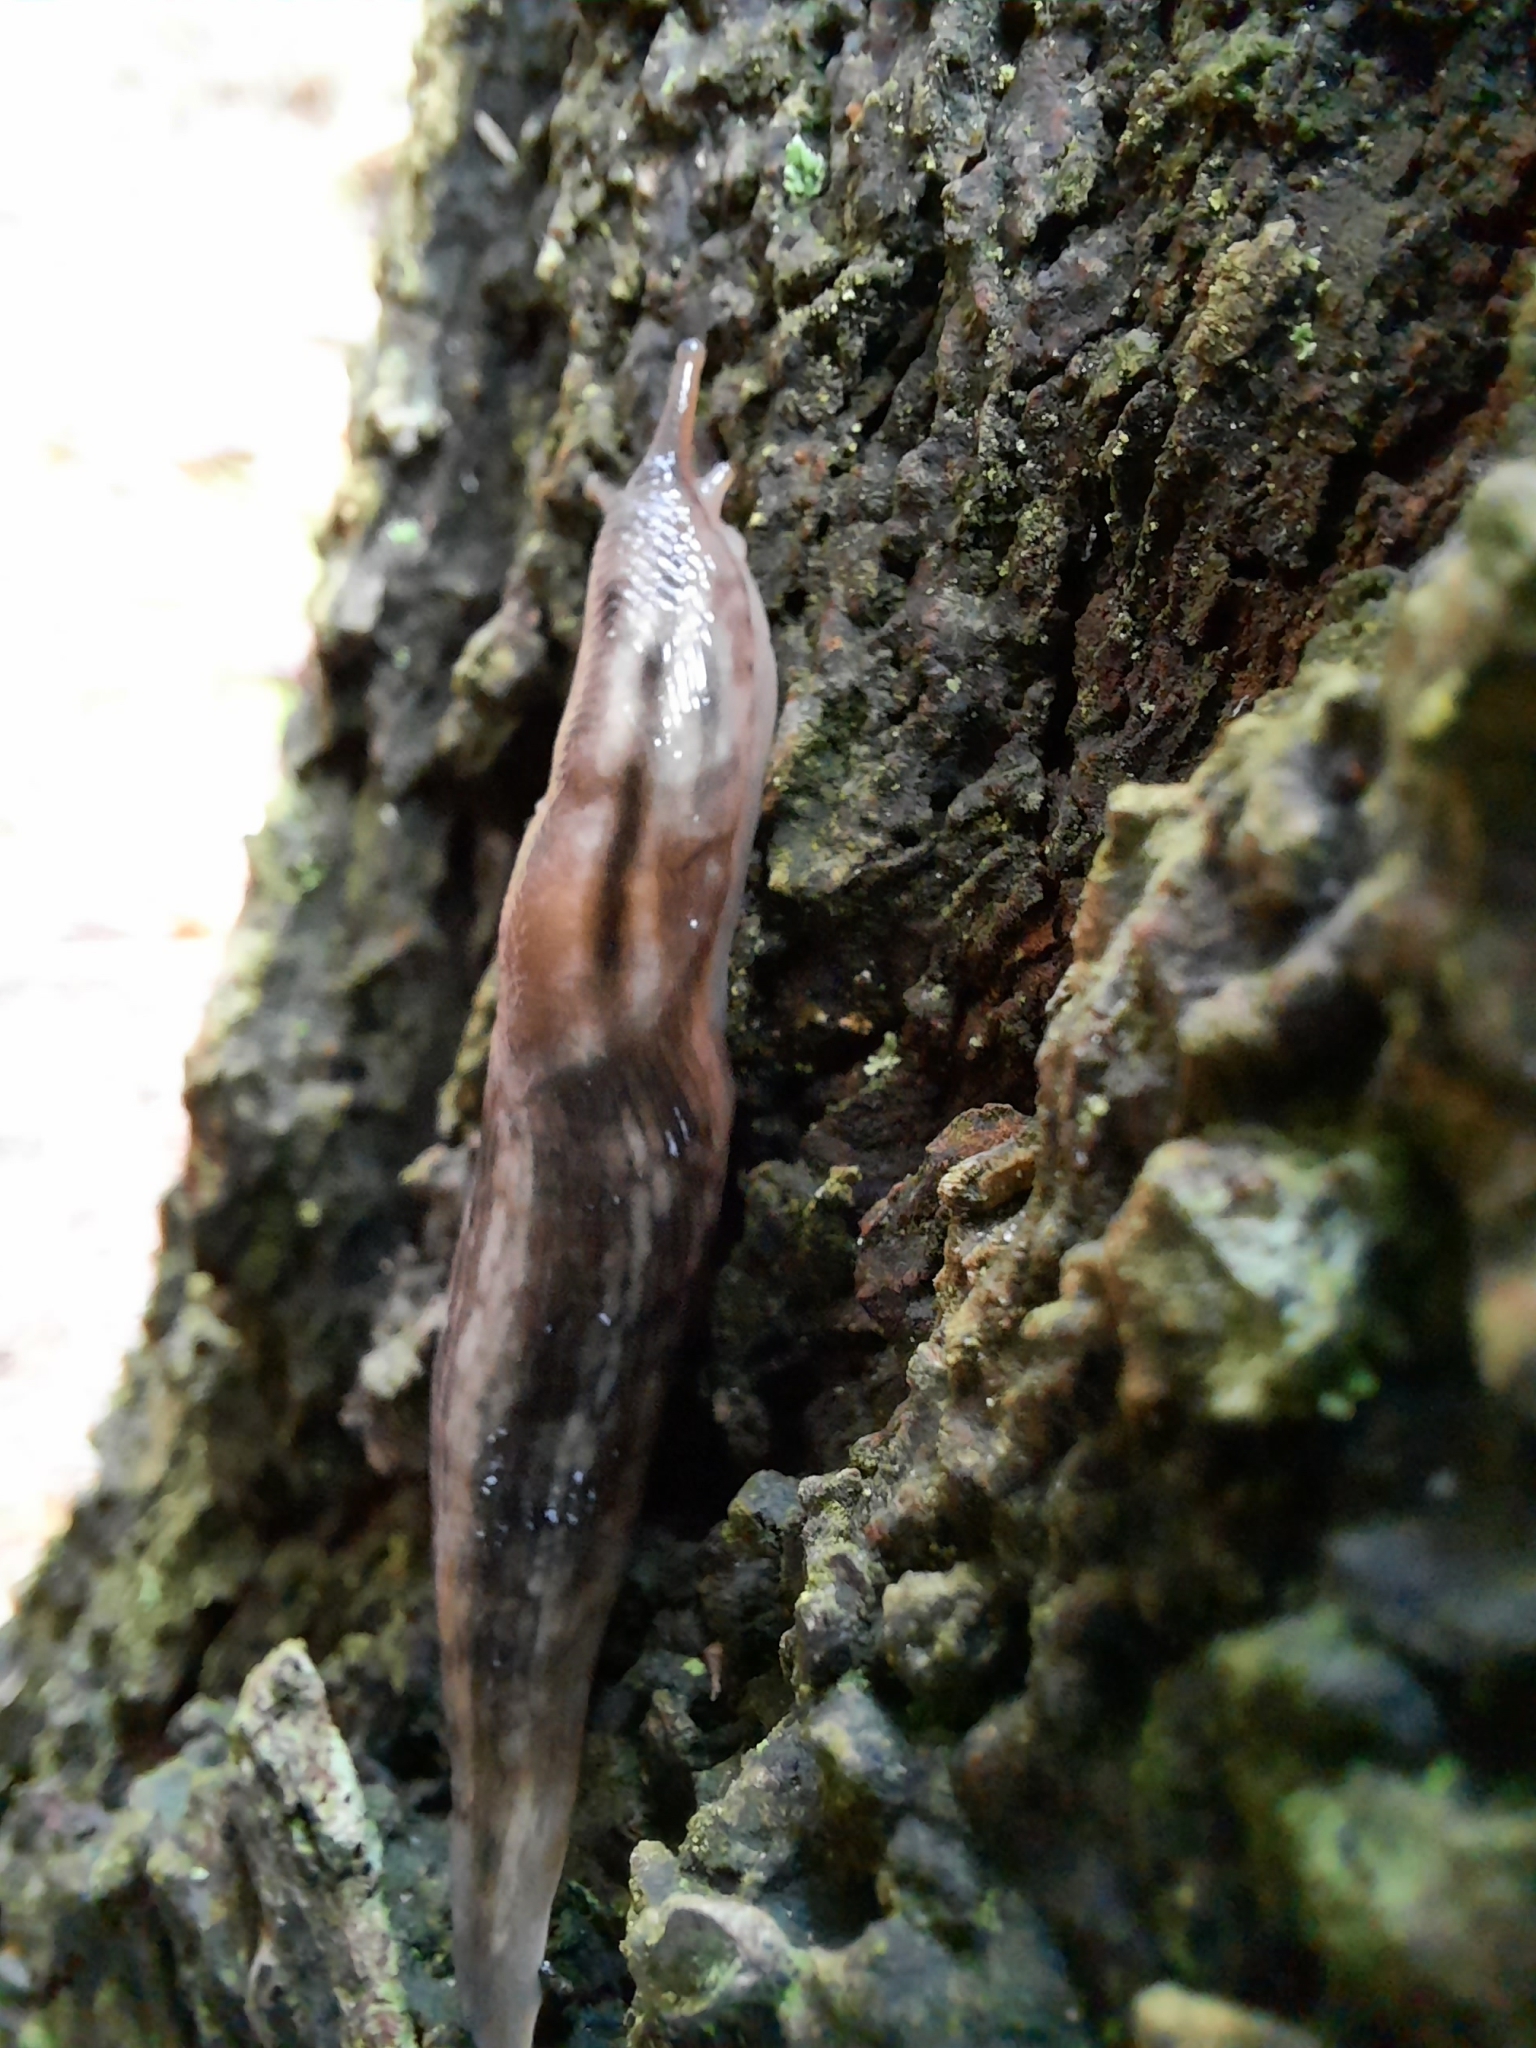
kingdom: Animalia
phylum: Mollusca
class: Gastropoda
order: Stylommatophora
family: Limacidae
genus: Lehmannia
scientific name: Lehmannia marginata
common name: Tree slug
